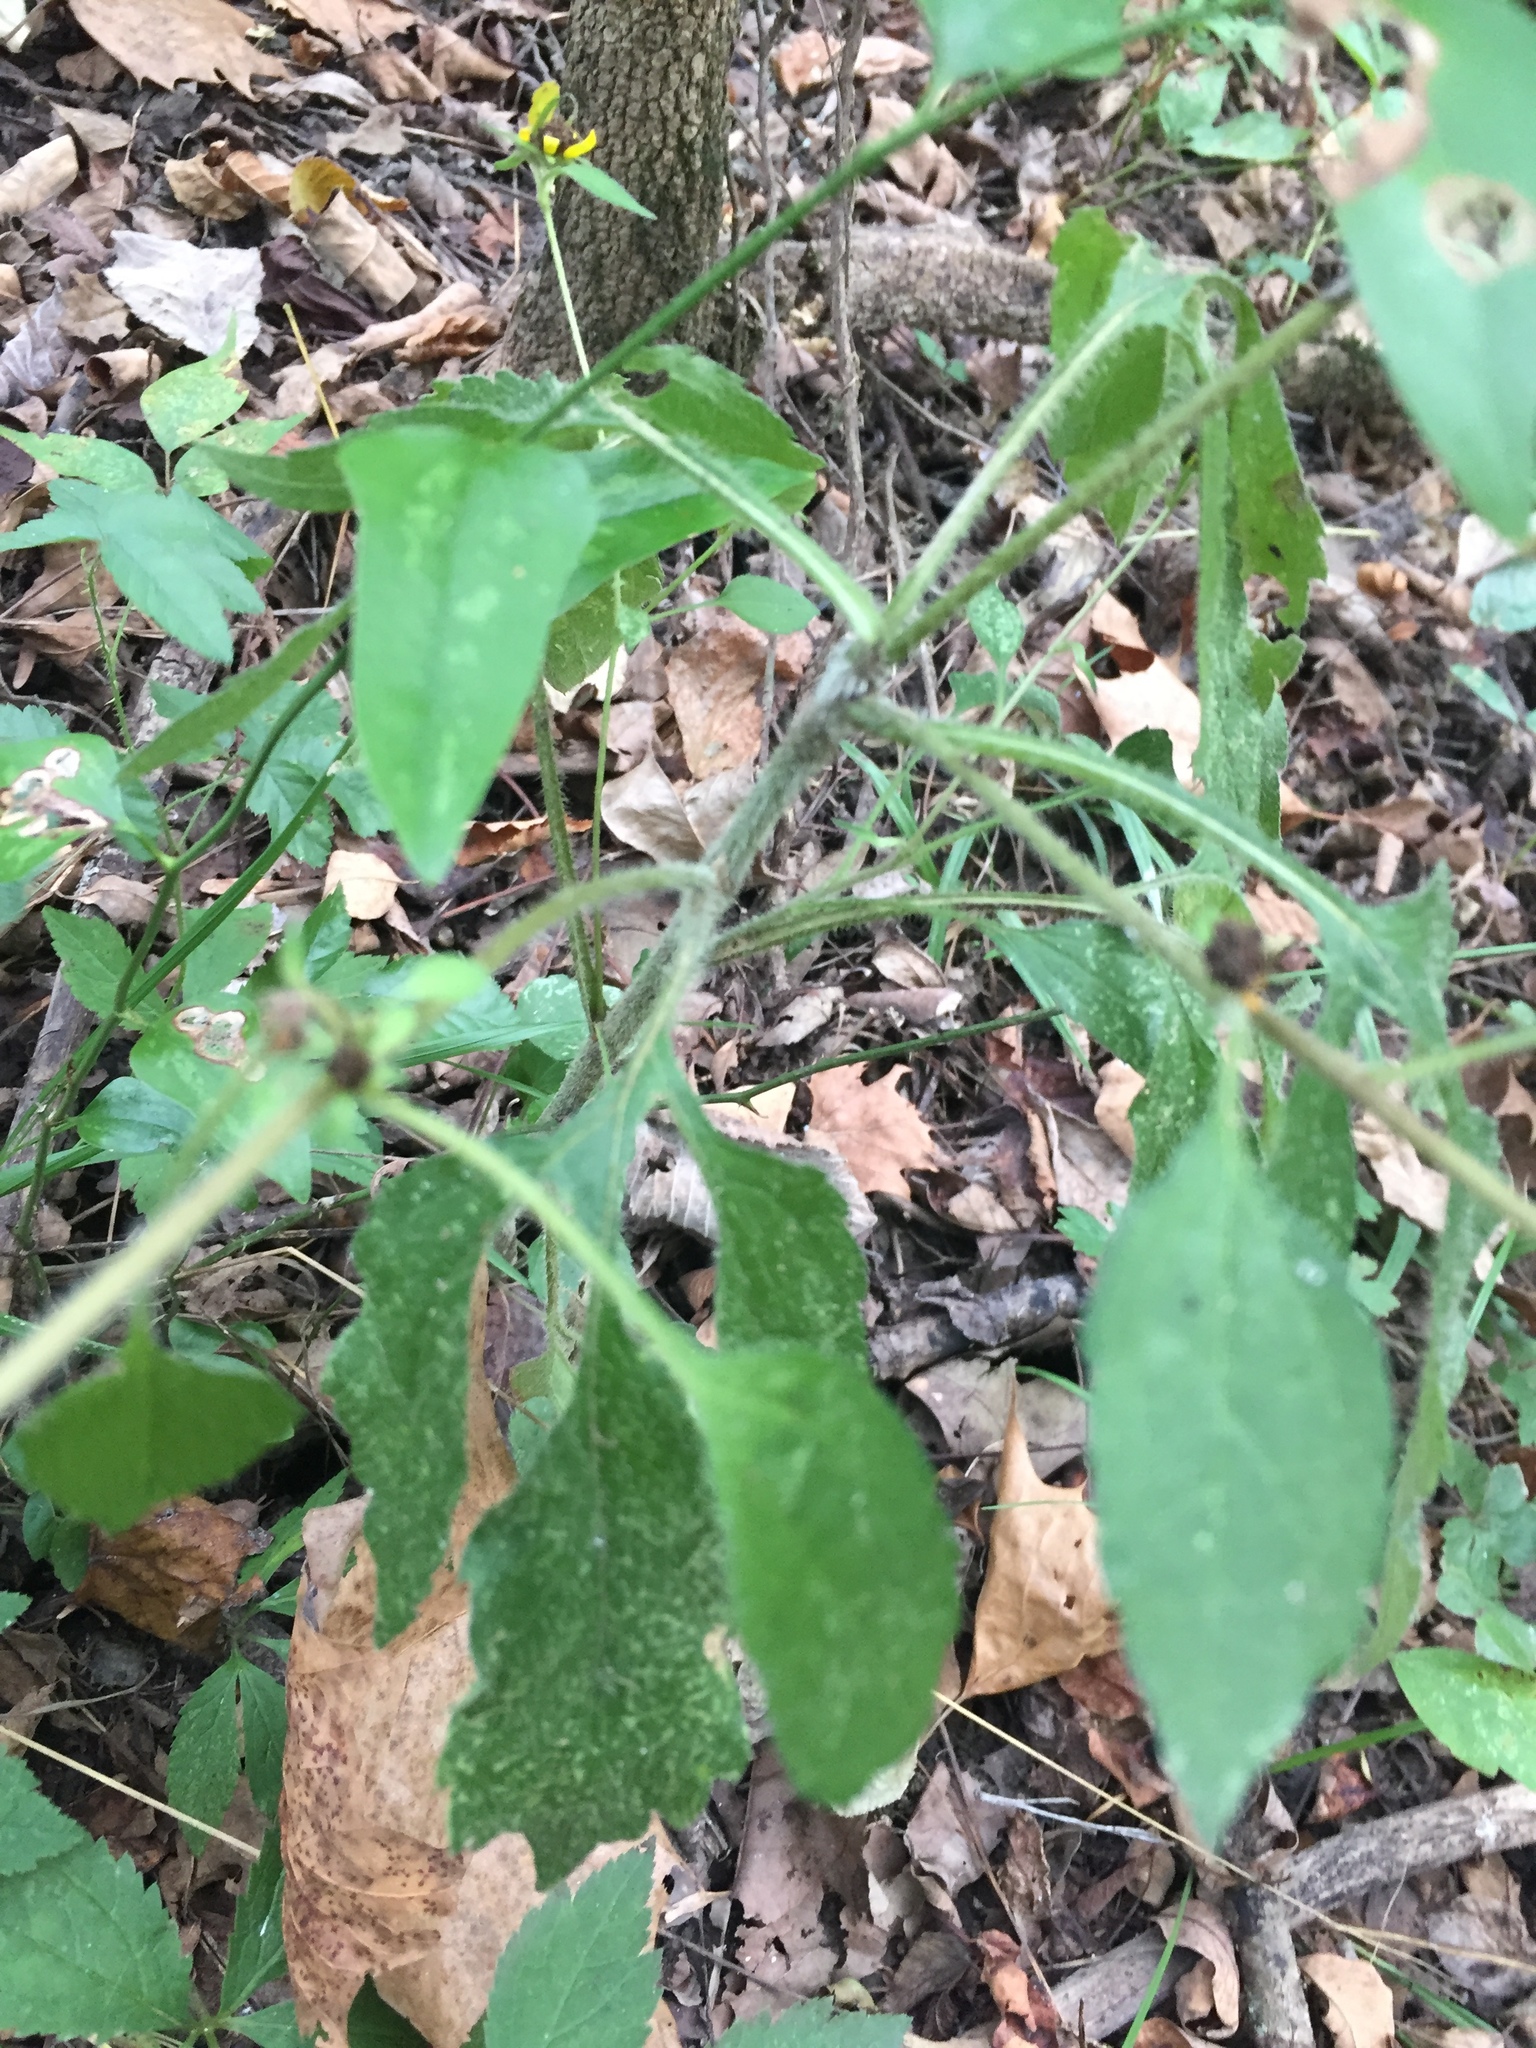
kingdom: Plantae
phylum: Tracheophyta
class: Magnoliopsida
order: Asterales
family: Asteraceae
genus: Rudbeckia
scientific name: Rudbeckia triloba
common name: Thin-leaved coneflower
